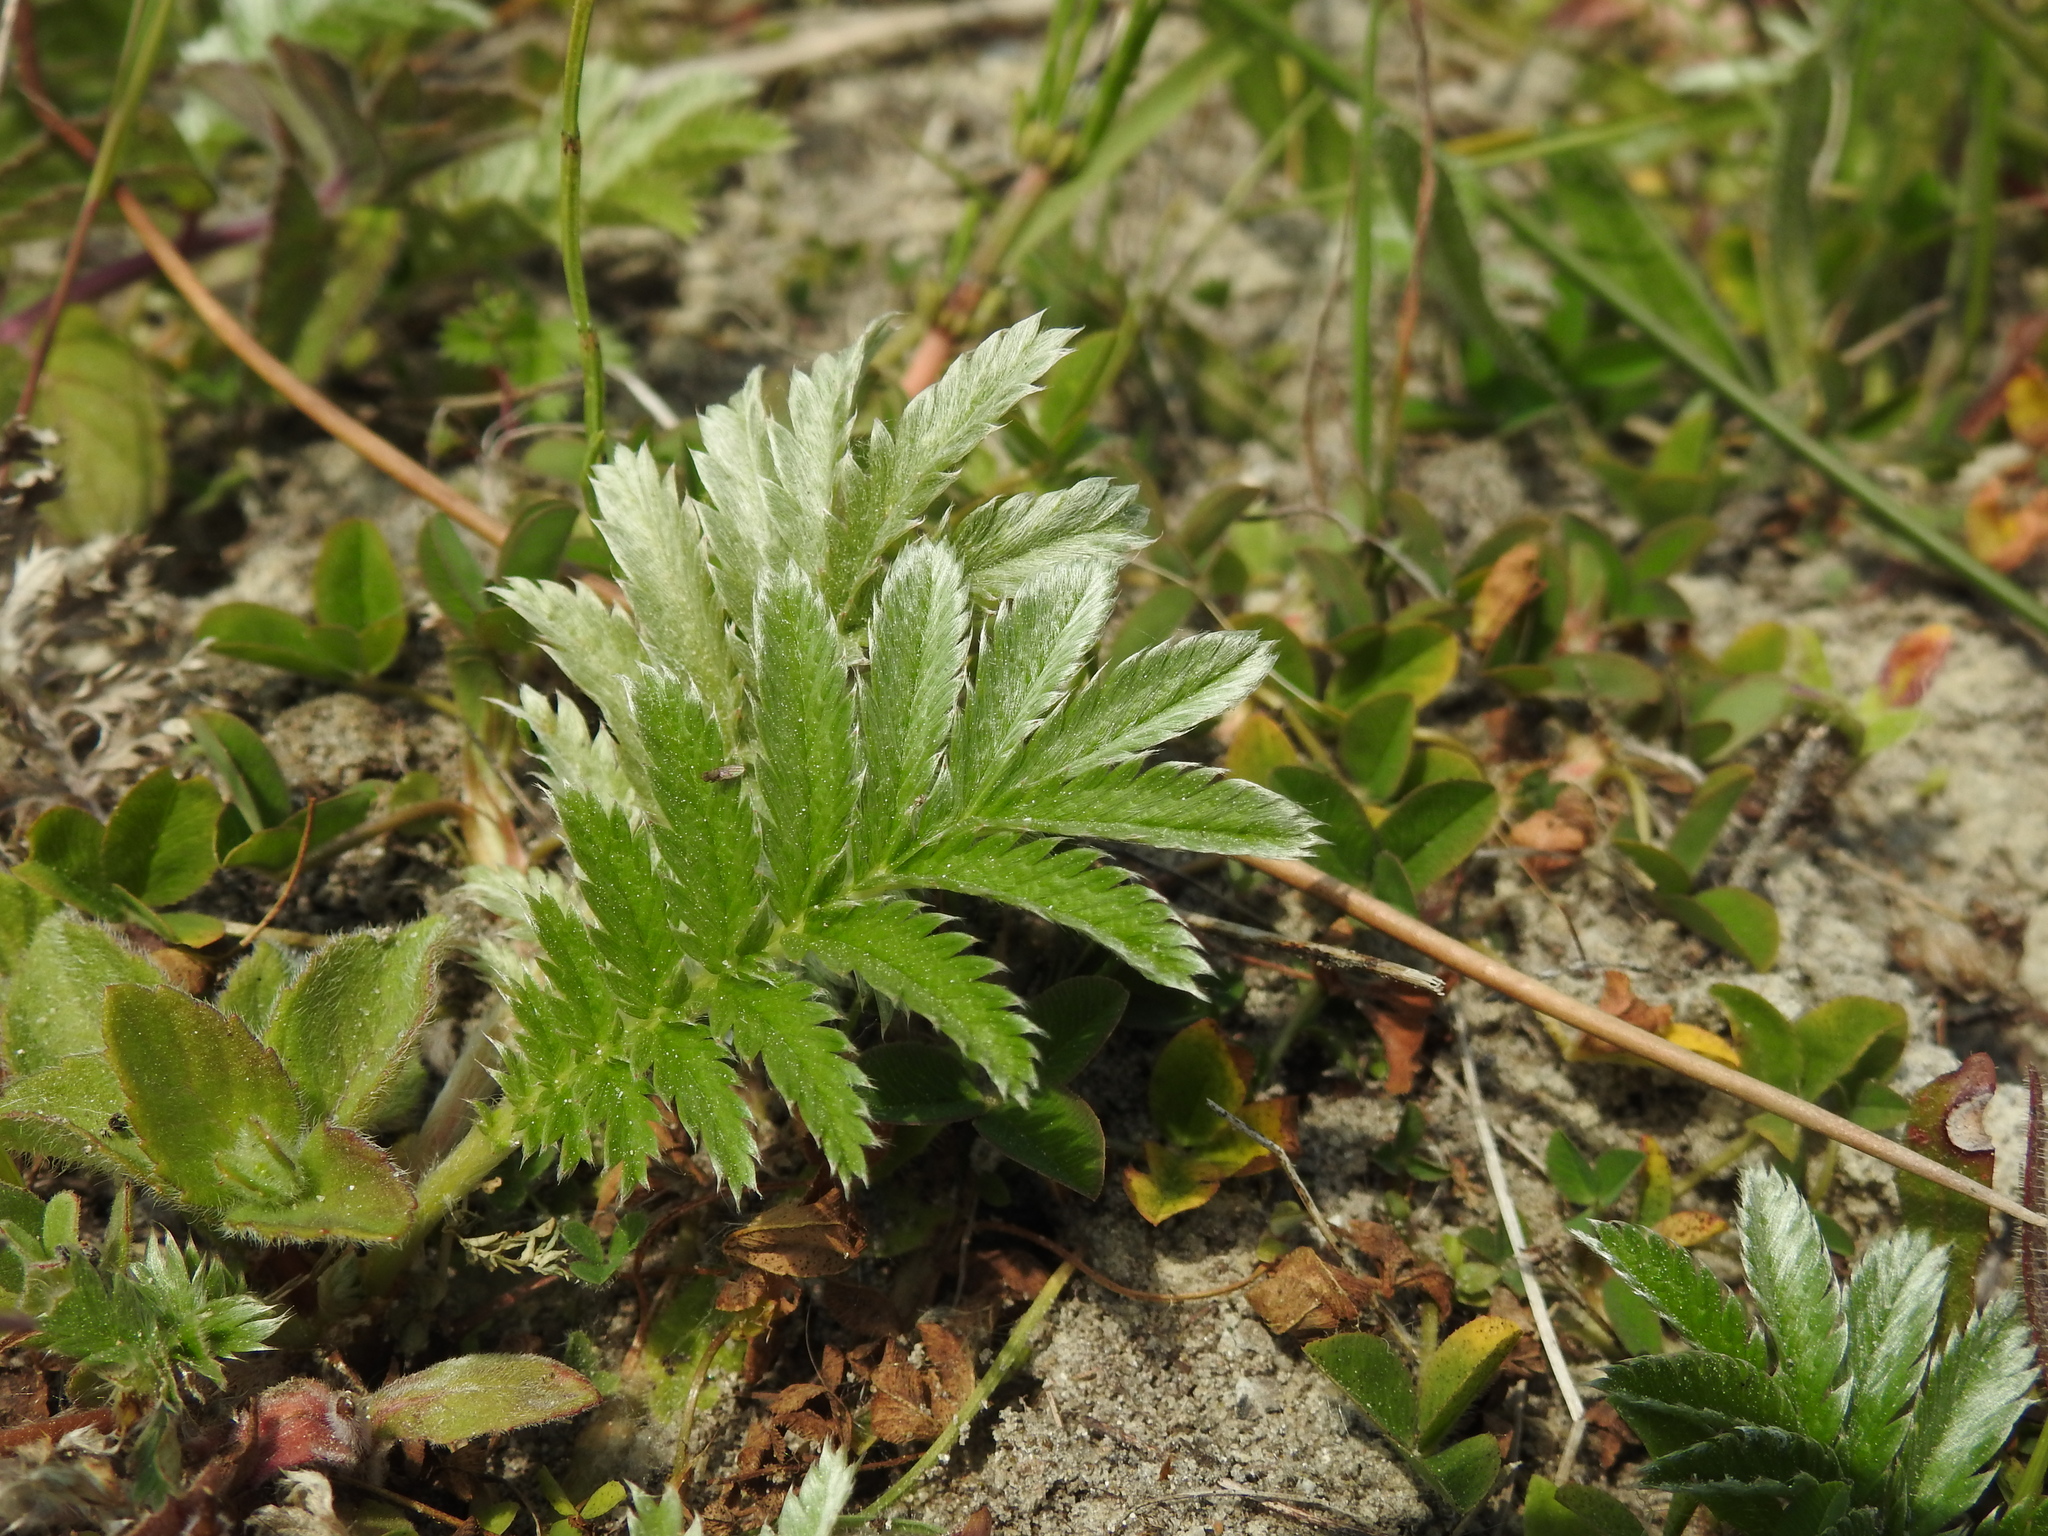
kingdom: Plantae
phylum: Tracheophyta
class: Magnoliopsida
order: Rosales
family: Rosaceae
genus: Argentina
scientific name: Argentina anserina
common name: Common silverweed
